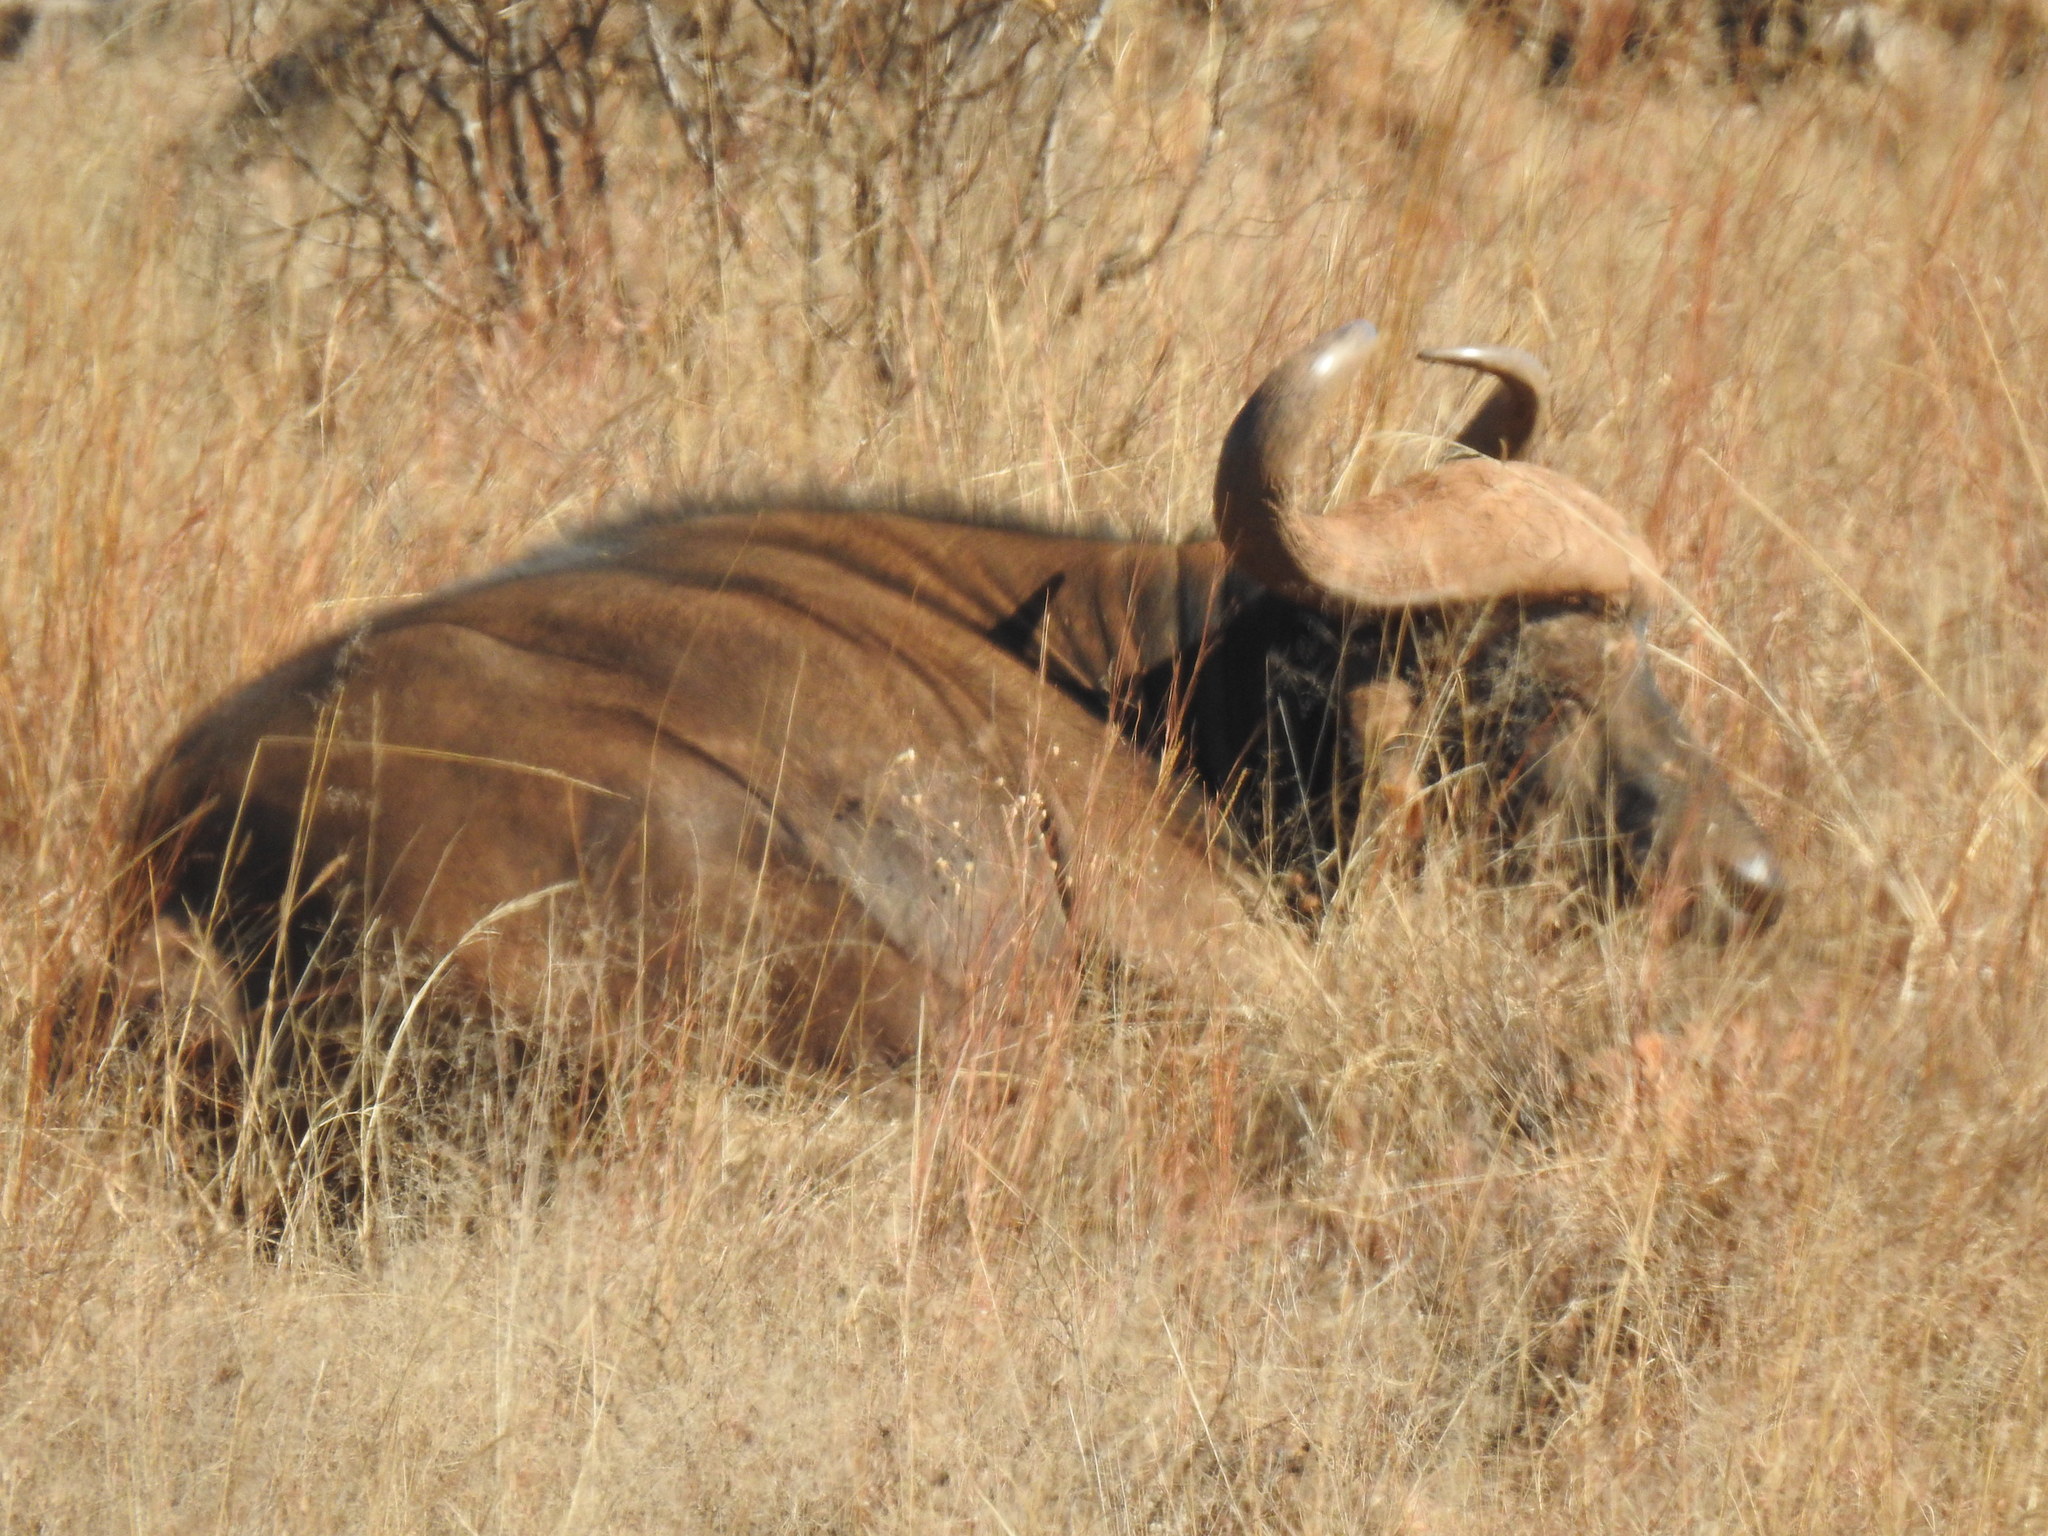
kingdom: Animalia
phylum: Chordata
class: Mammalia
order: Artiodactyla
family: Bovidae
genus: Syncerus
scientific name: Syncerus caffer
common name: African buffalo
